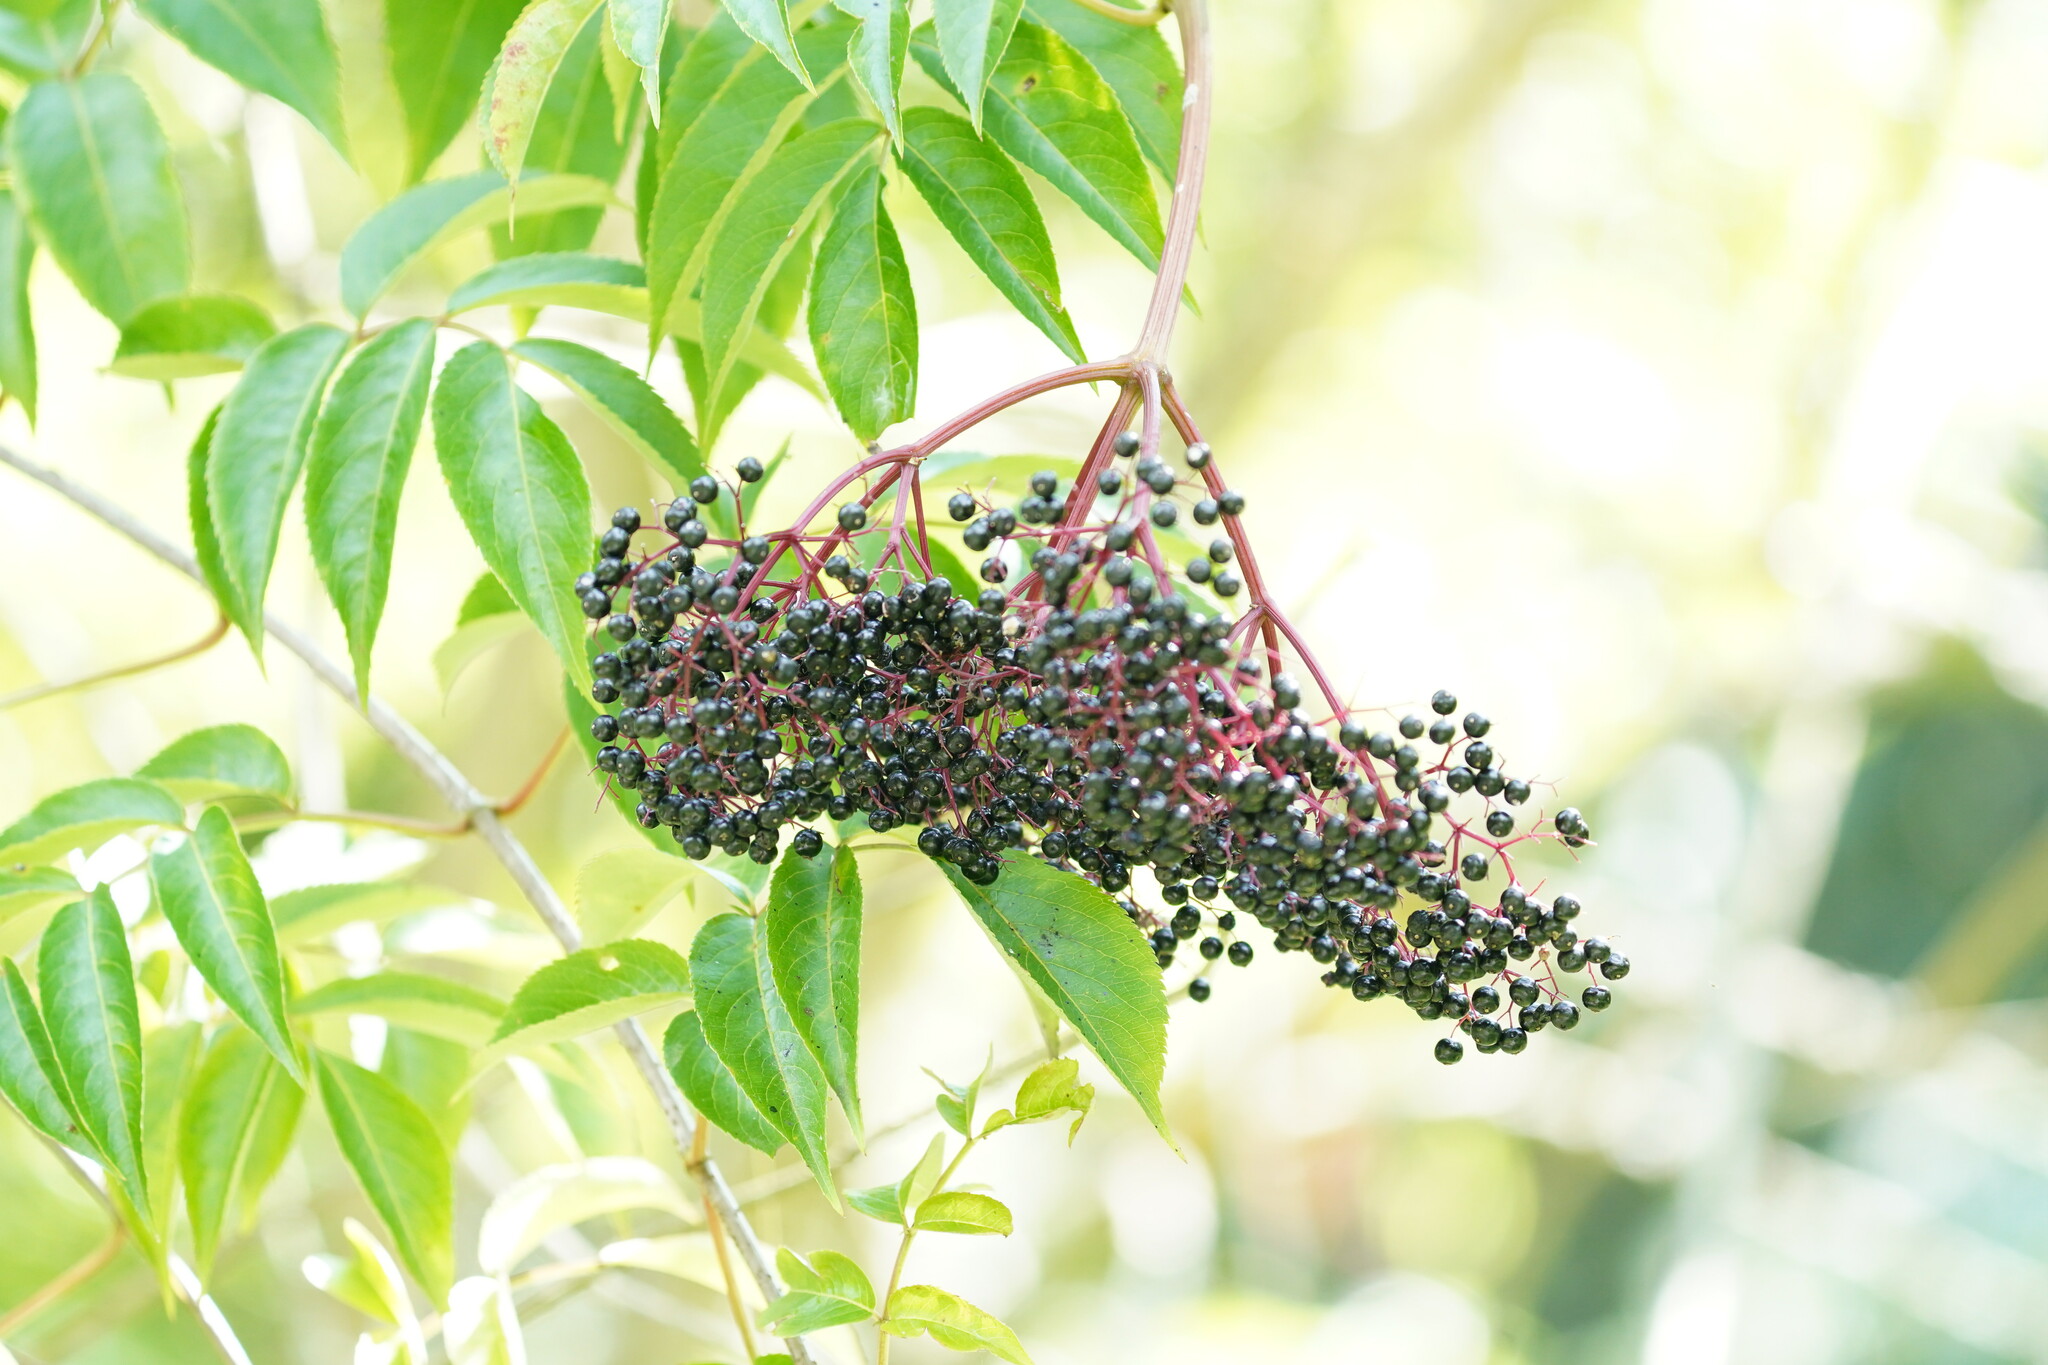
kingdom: Plantae
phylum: Tracheophyta
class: Magnoliopsida
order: Dipsacales
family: Viburnaceae
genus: Sambucus
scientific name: Sambucus canadensis
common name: American elder
